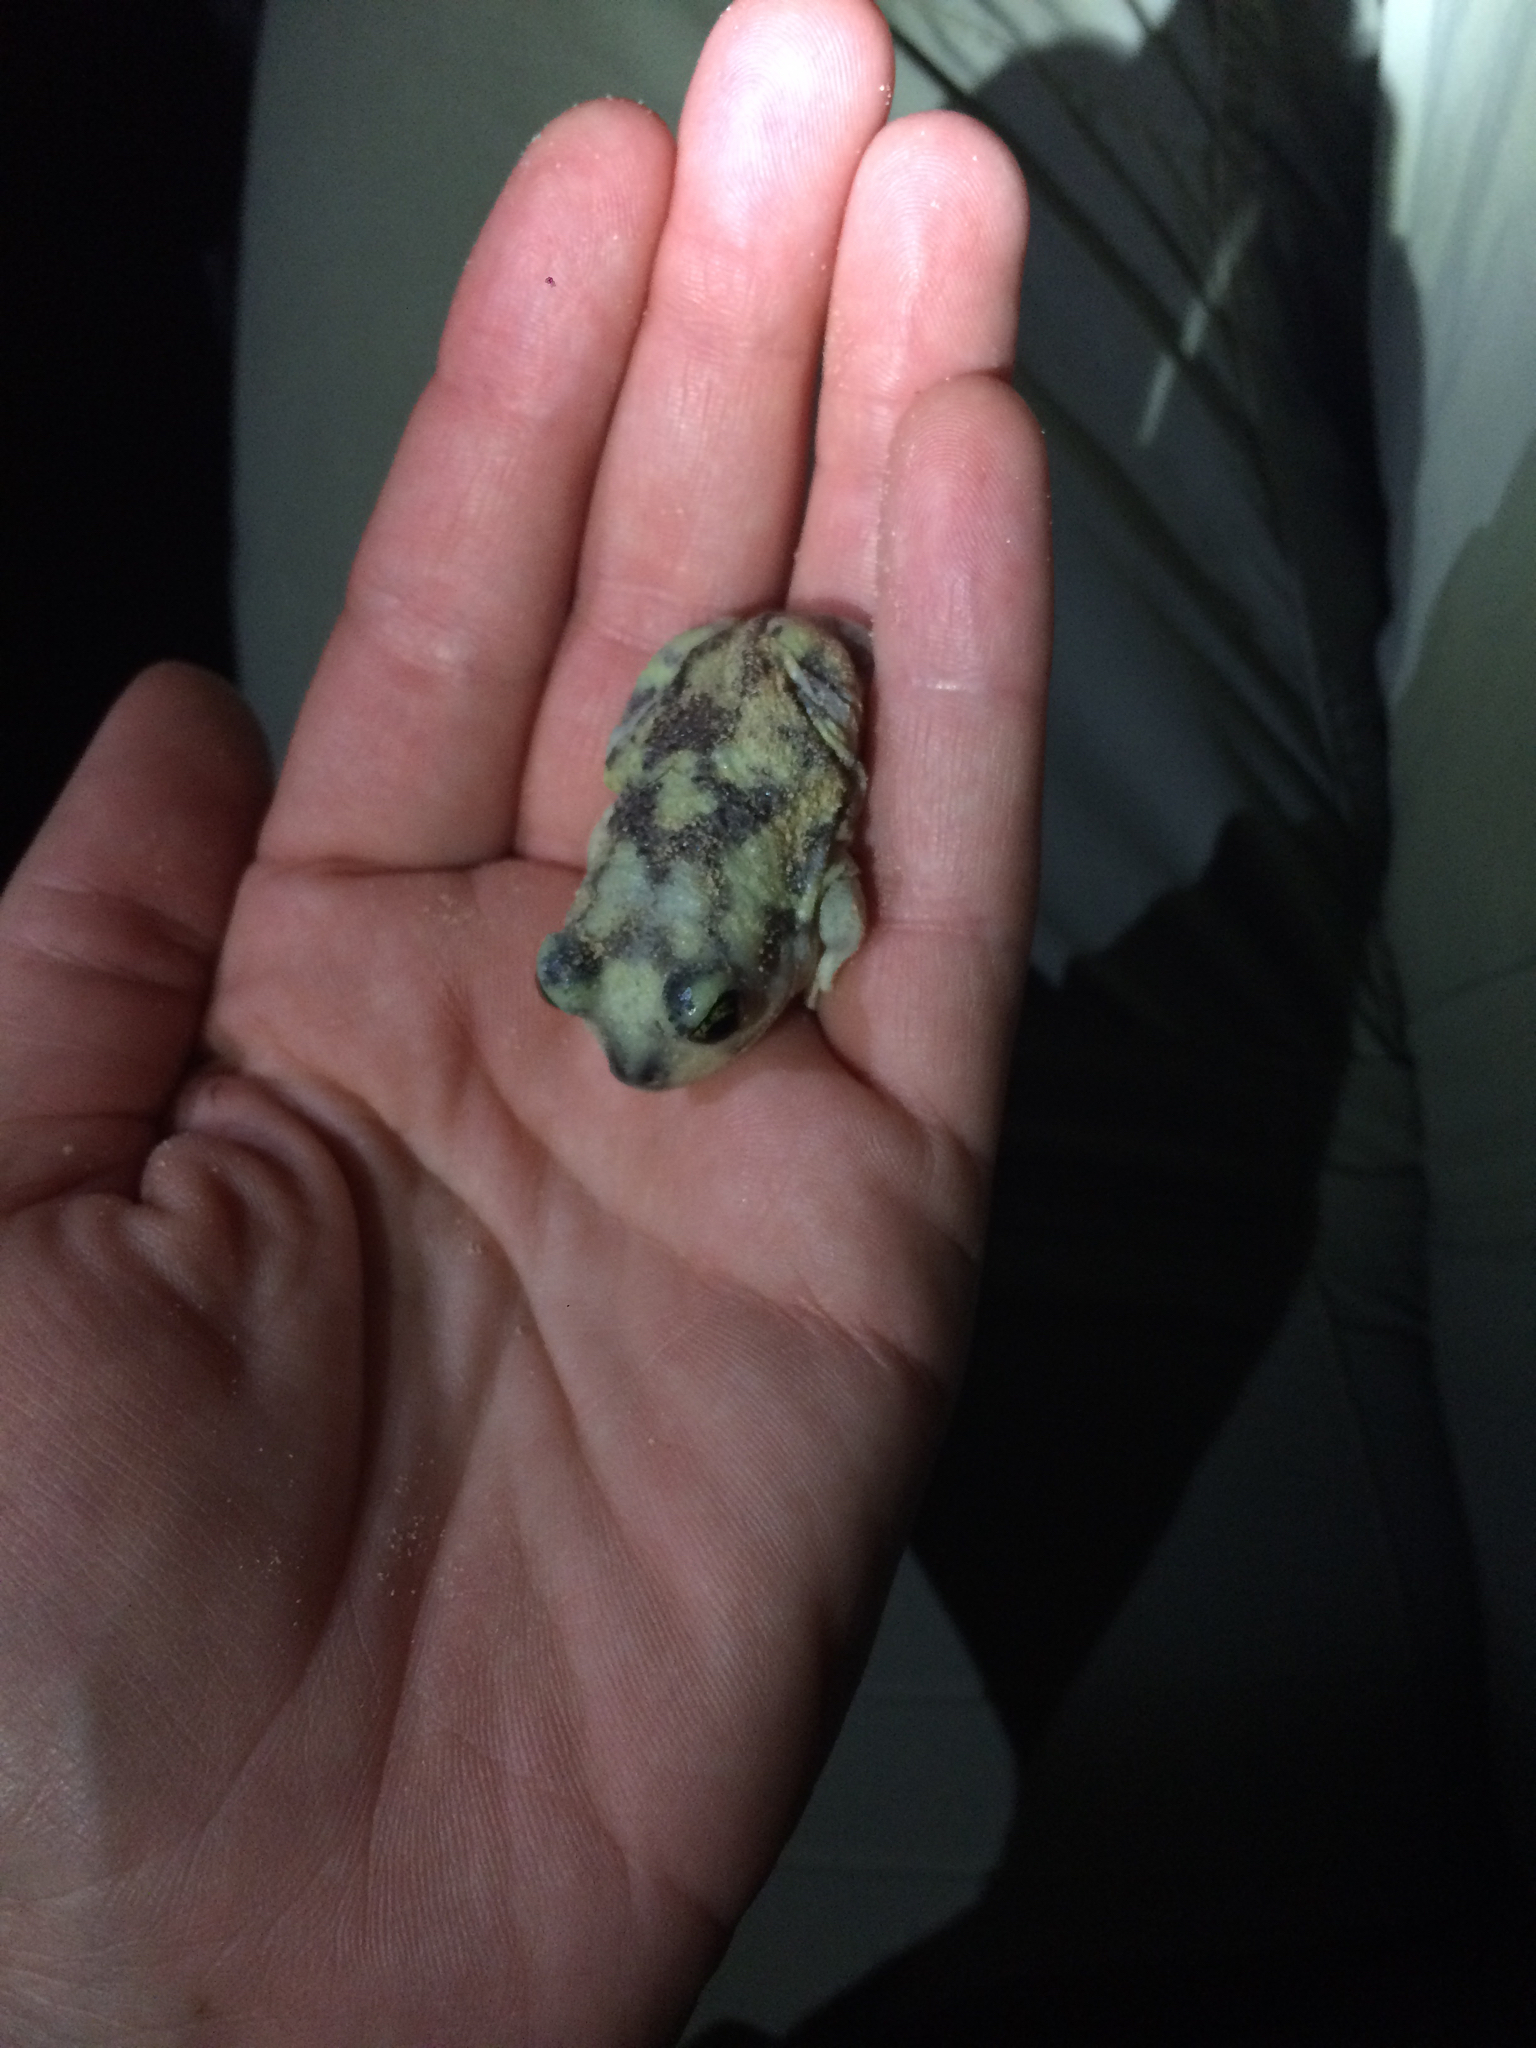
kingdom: Animalia
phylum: Chordata
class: Amphibia
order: Anura
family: Scaphiopodidae
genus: Scaphiopus
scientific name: Scaphiopus couchii
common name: Couch's spadefoot toad
